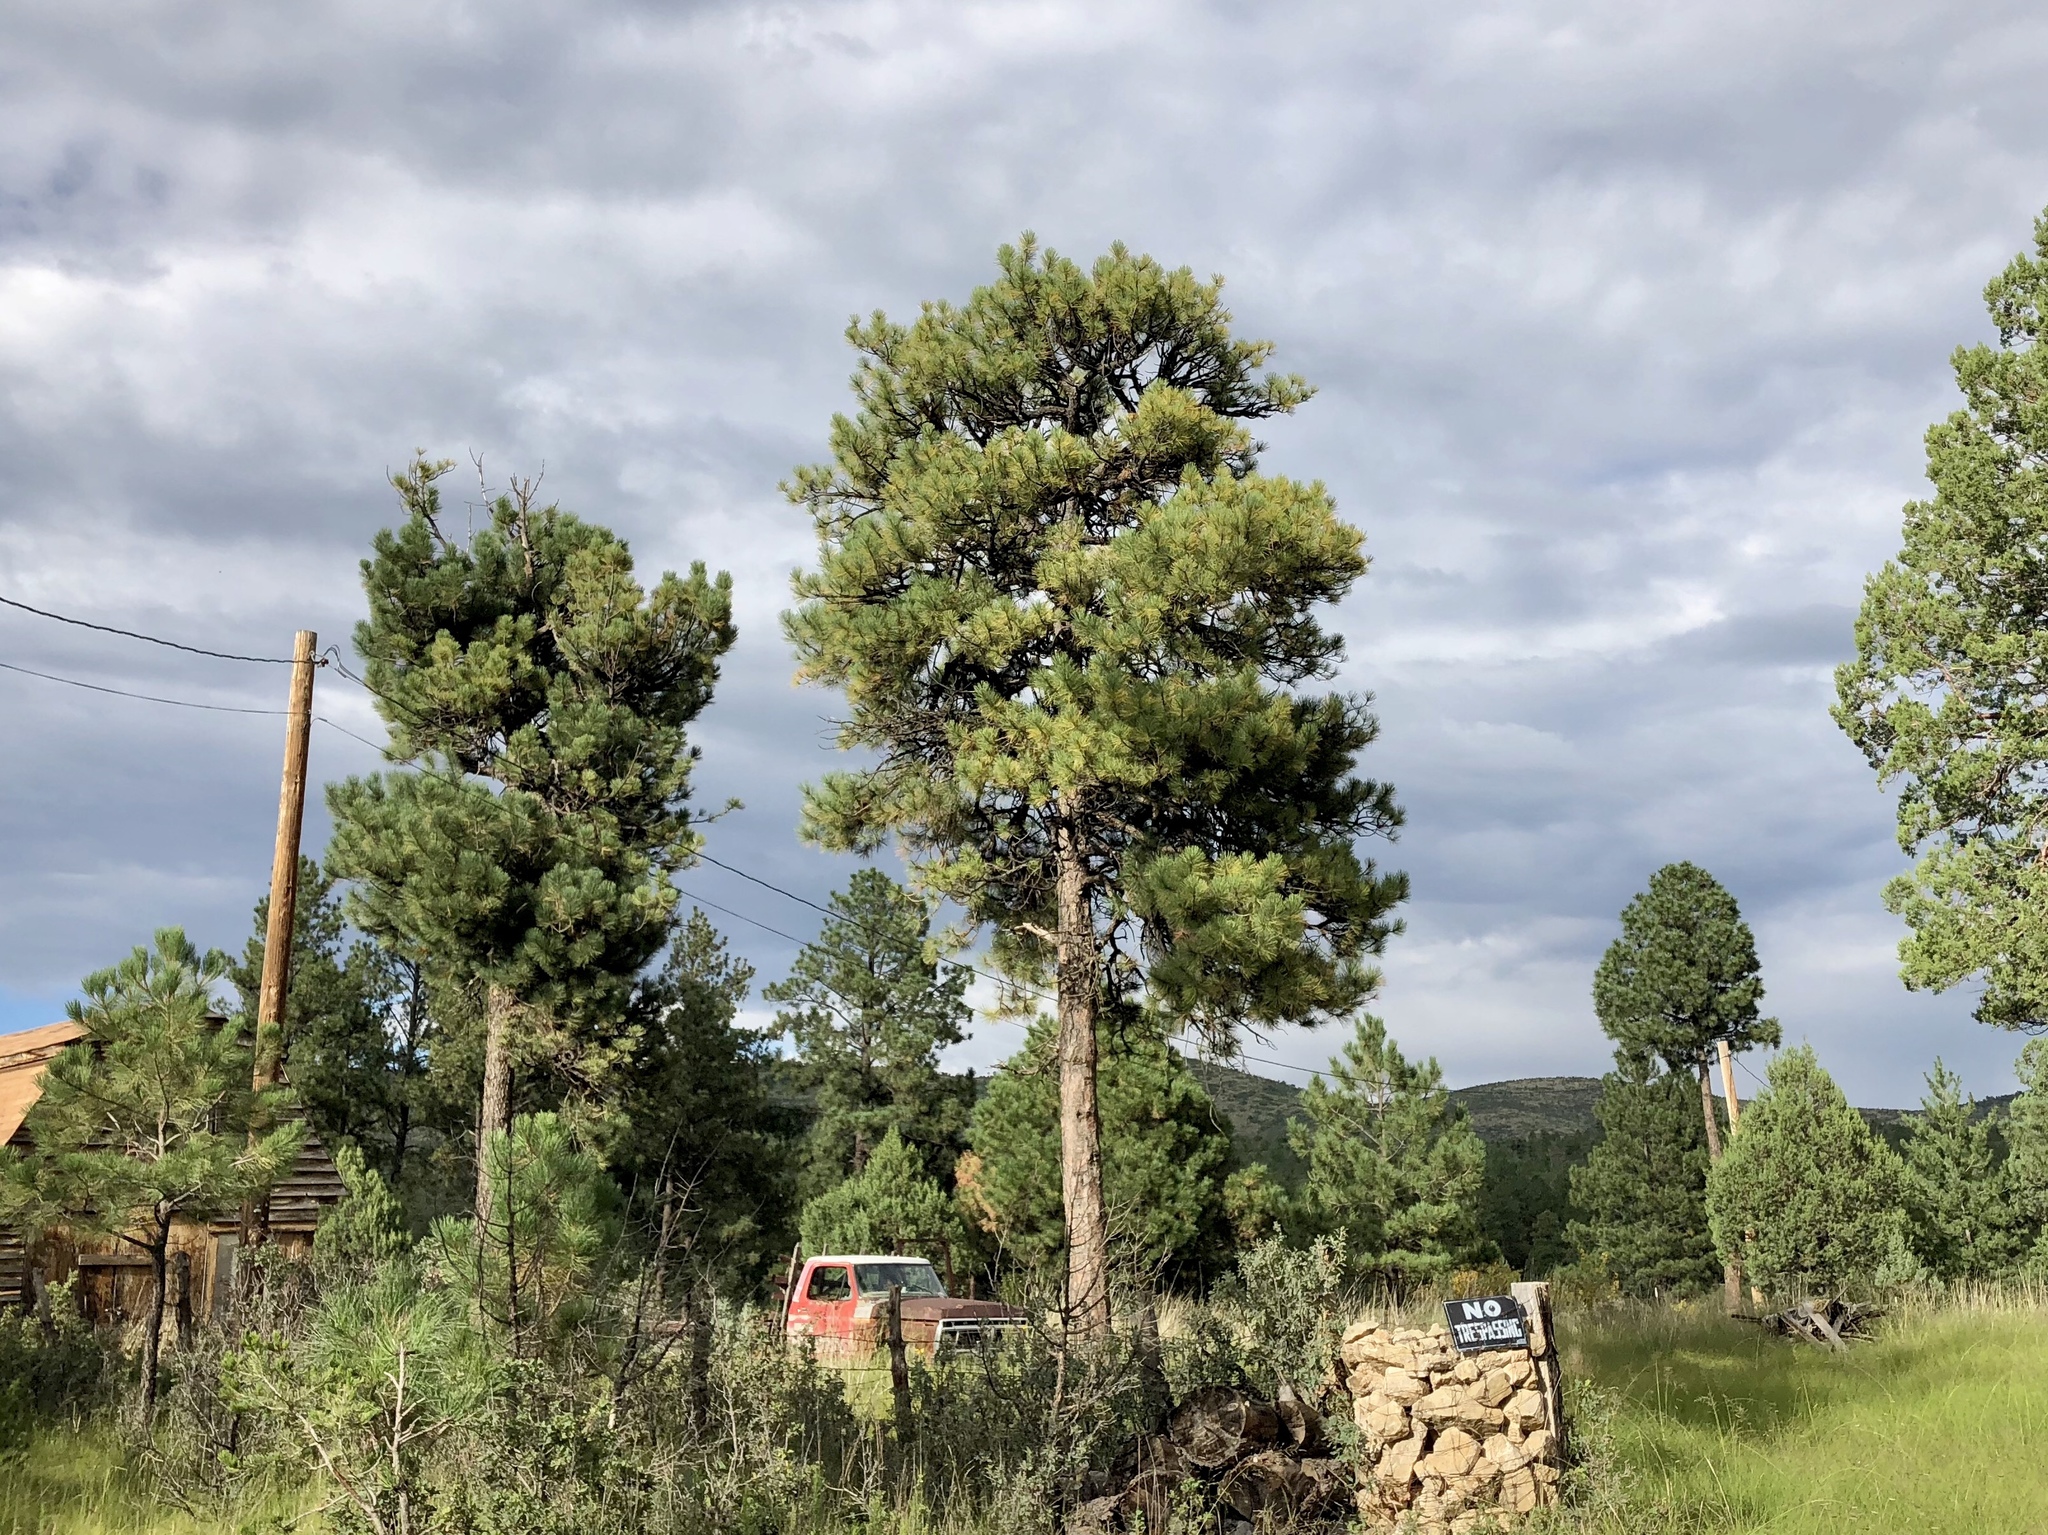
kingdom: Plantae
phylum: Tracheophyta
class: Pinopsida
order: Pinales
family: Pinaceae
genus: Pinus
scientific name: Pinus ponderosa
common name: Western yellow-pine
